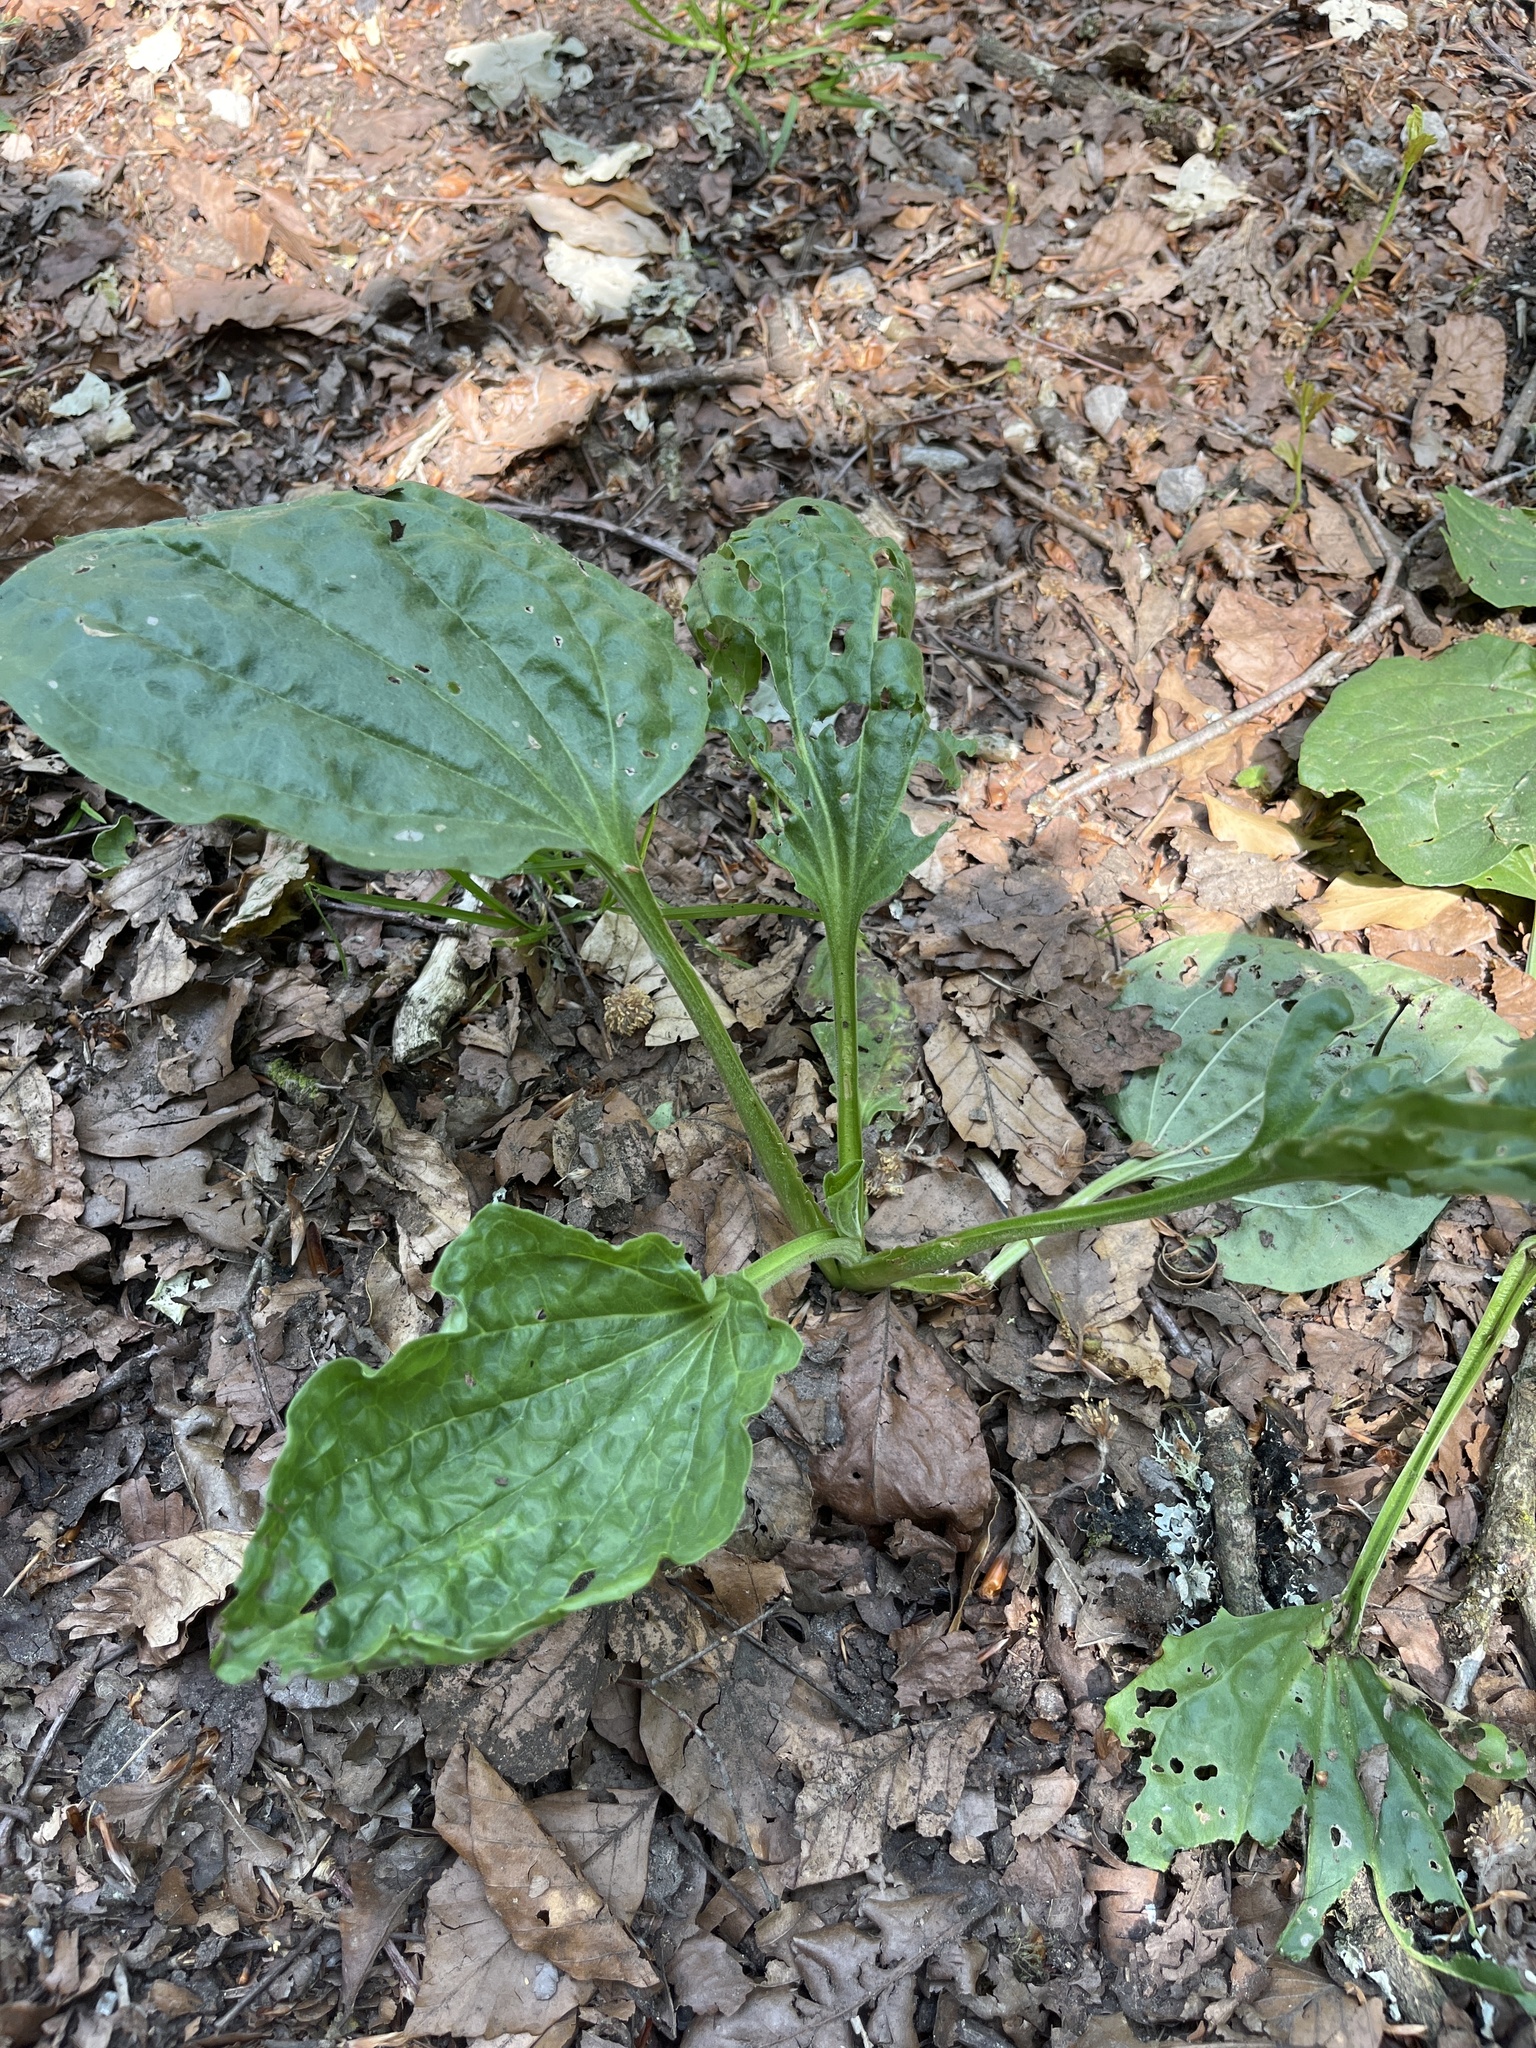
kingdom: Plantae
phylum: Tracheophyta
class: Magnoliopsida
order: Lamiales
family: Plantaginaceae
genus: Plantago
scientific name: Plantago major
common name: Common plantain
